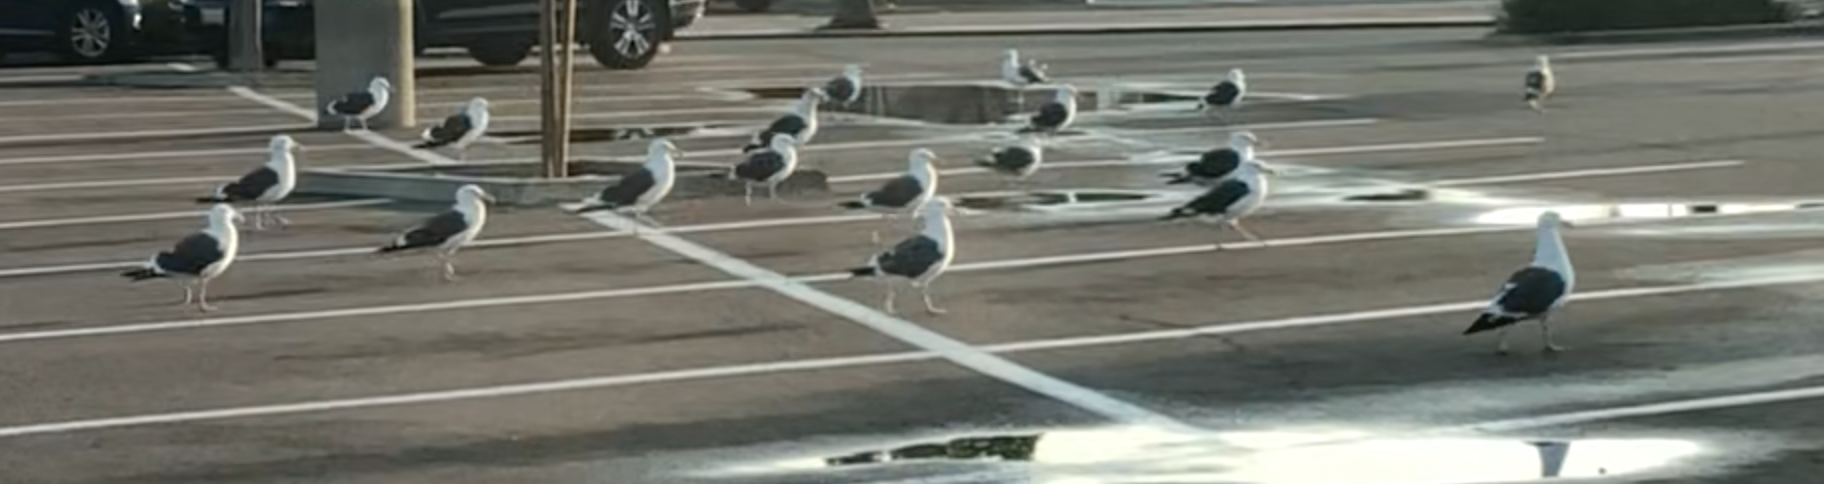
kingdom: Animalia
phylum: Chordata
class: Aves
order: Charadriiformes
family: Laridae
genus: Larus
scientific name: Larus occidentalis
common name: Western gull
